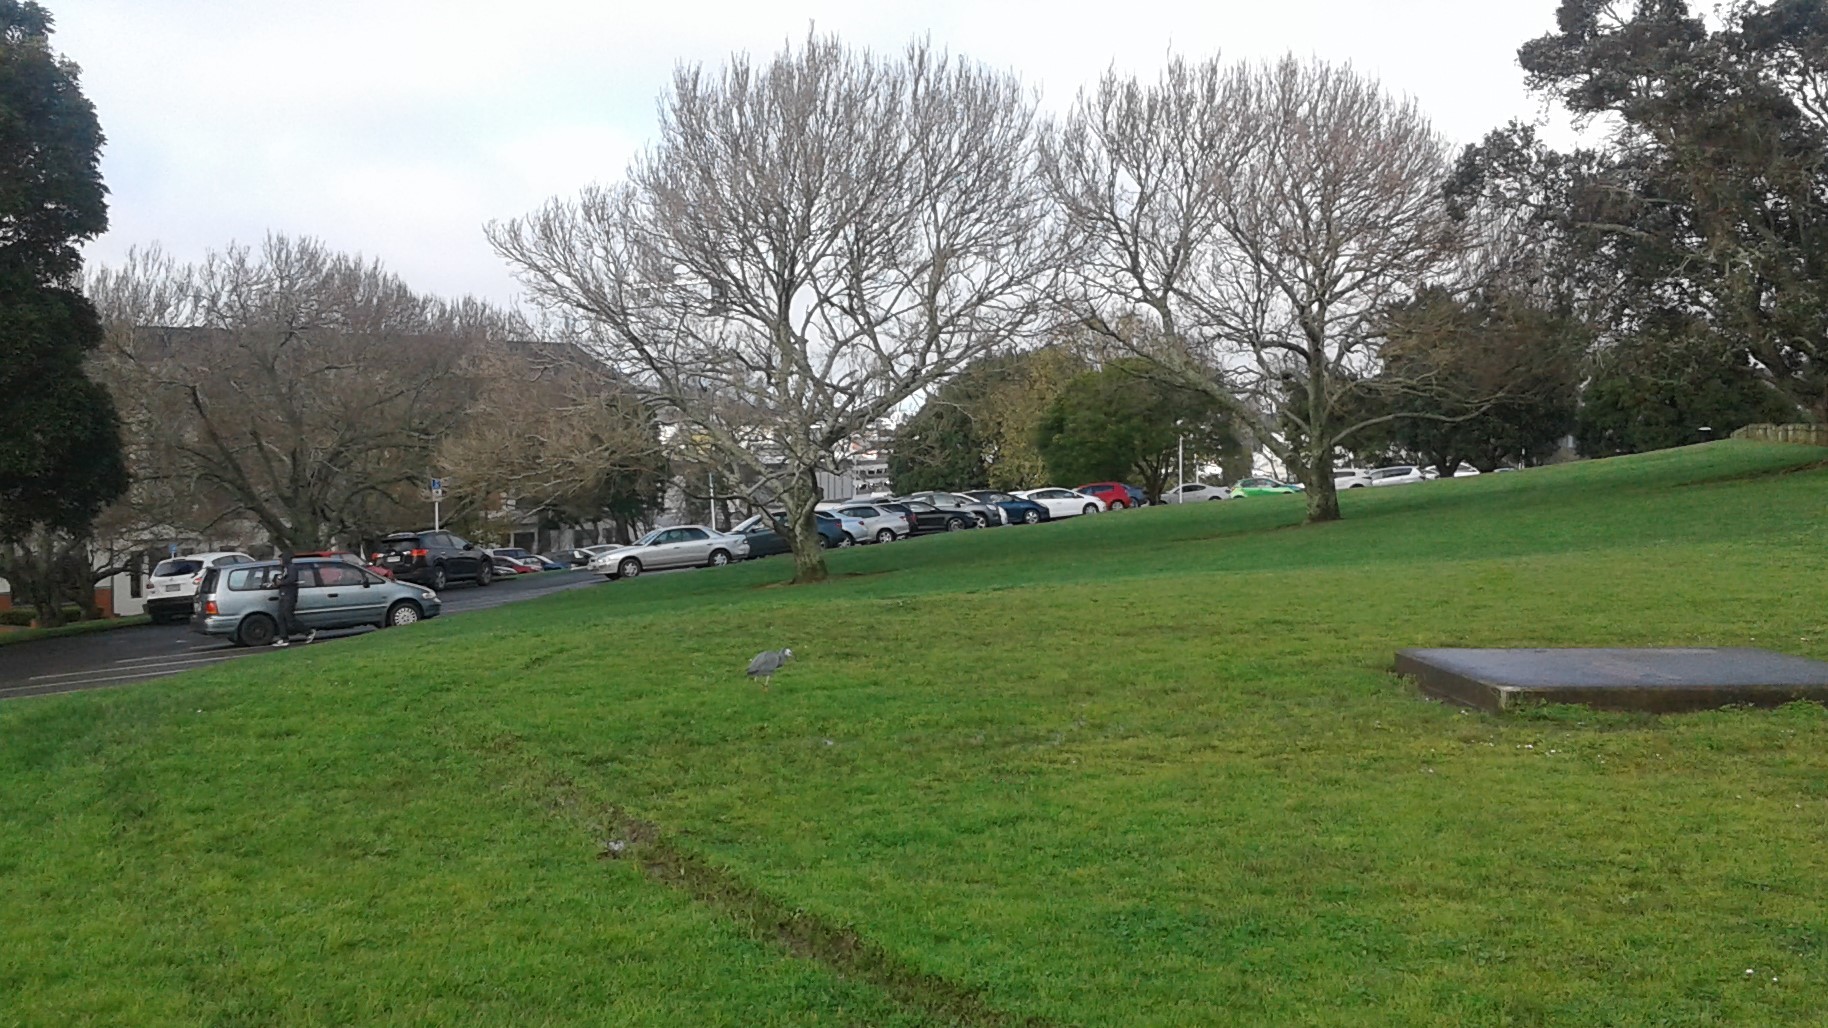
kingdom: Animalia
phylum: Chordata
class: Aves
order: Pelecaniformes
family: Ardeidae
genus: Egretta
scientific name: Egretta novaehollandiae
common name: White-faced heron
